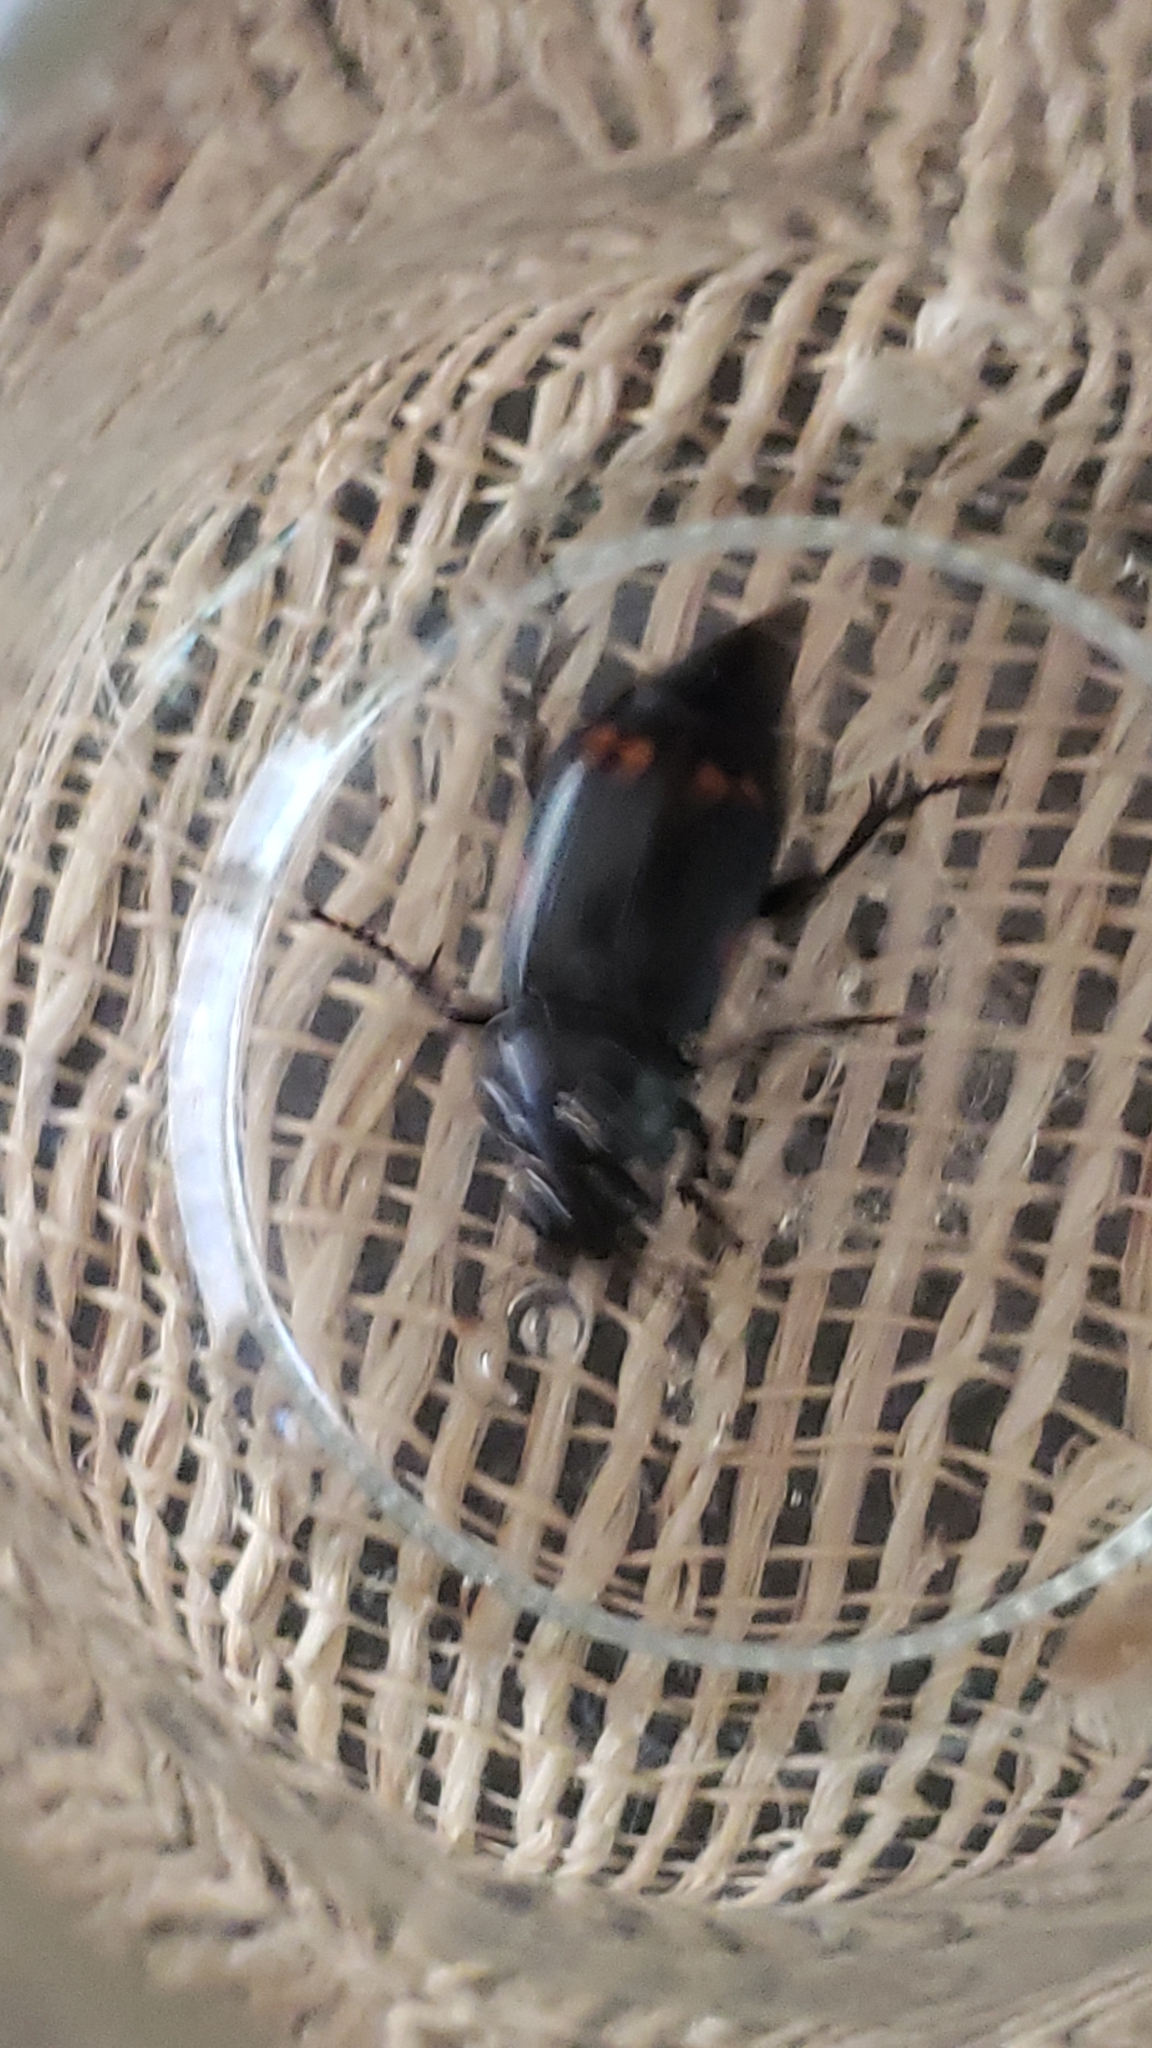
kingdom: Animalia
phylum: Arthropoda
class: Insecta
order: Coleoptera
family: Staphylinidae
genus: Nicrophorus
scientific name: Nicrophorus pustulatus
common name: Pustulated carrion beetle
